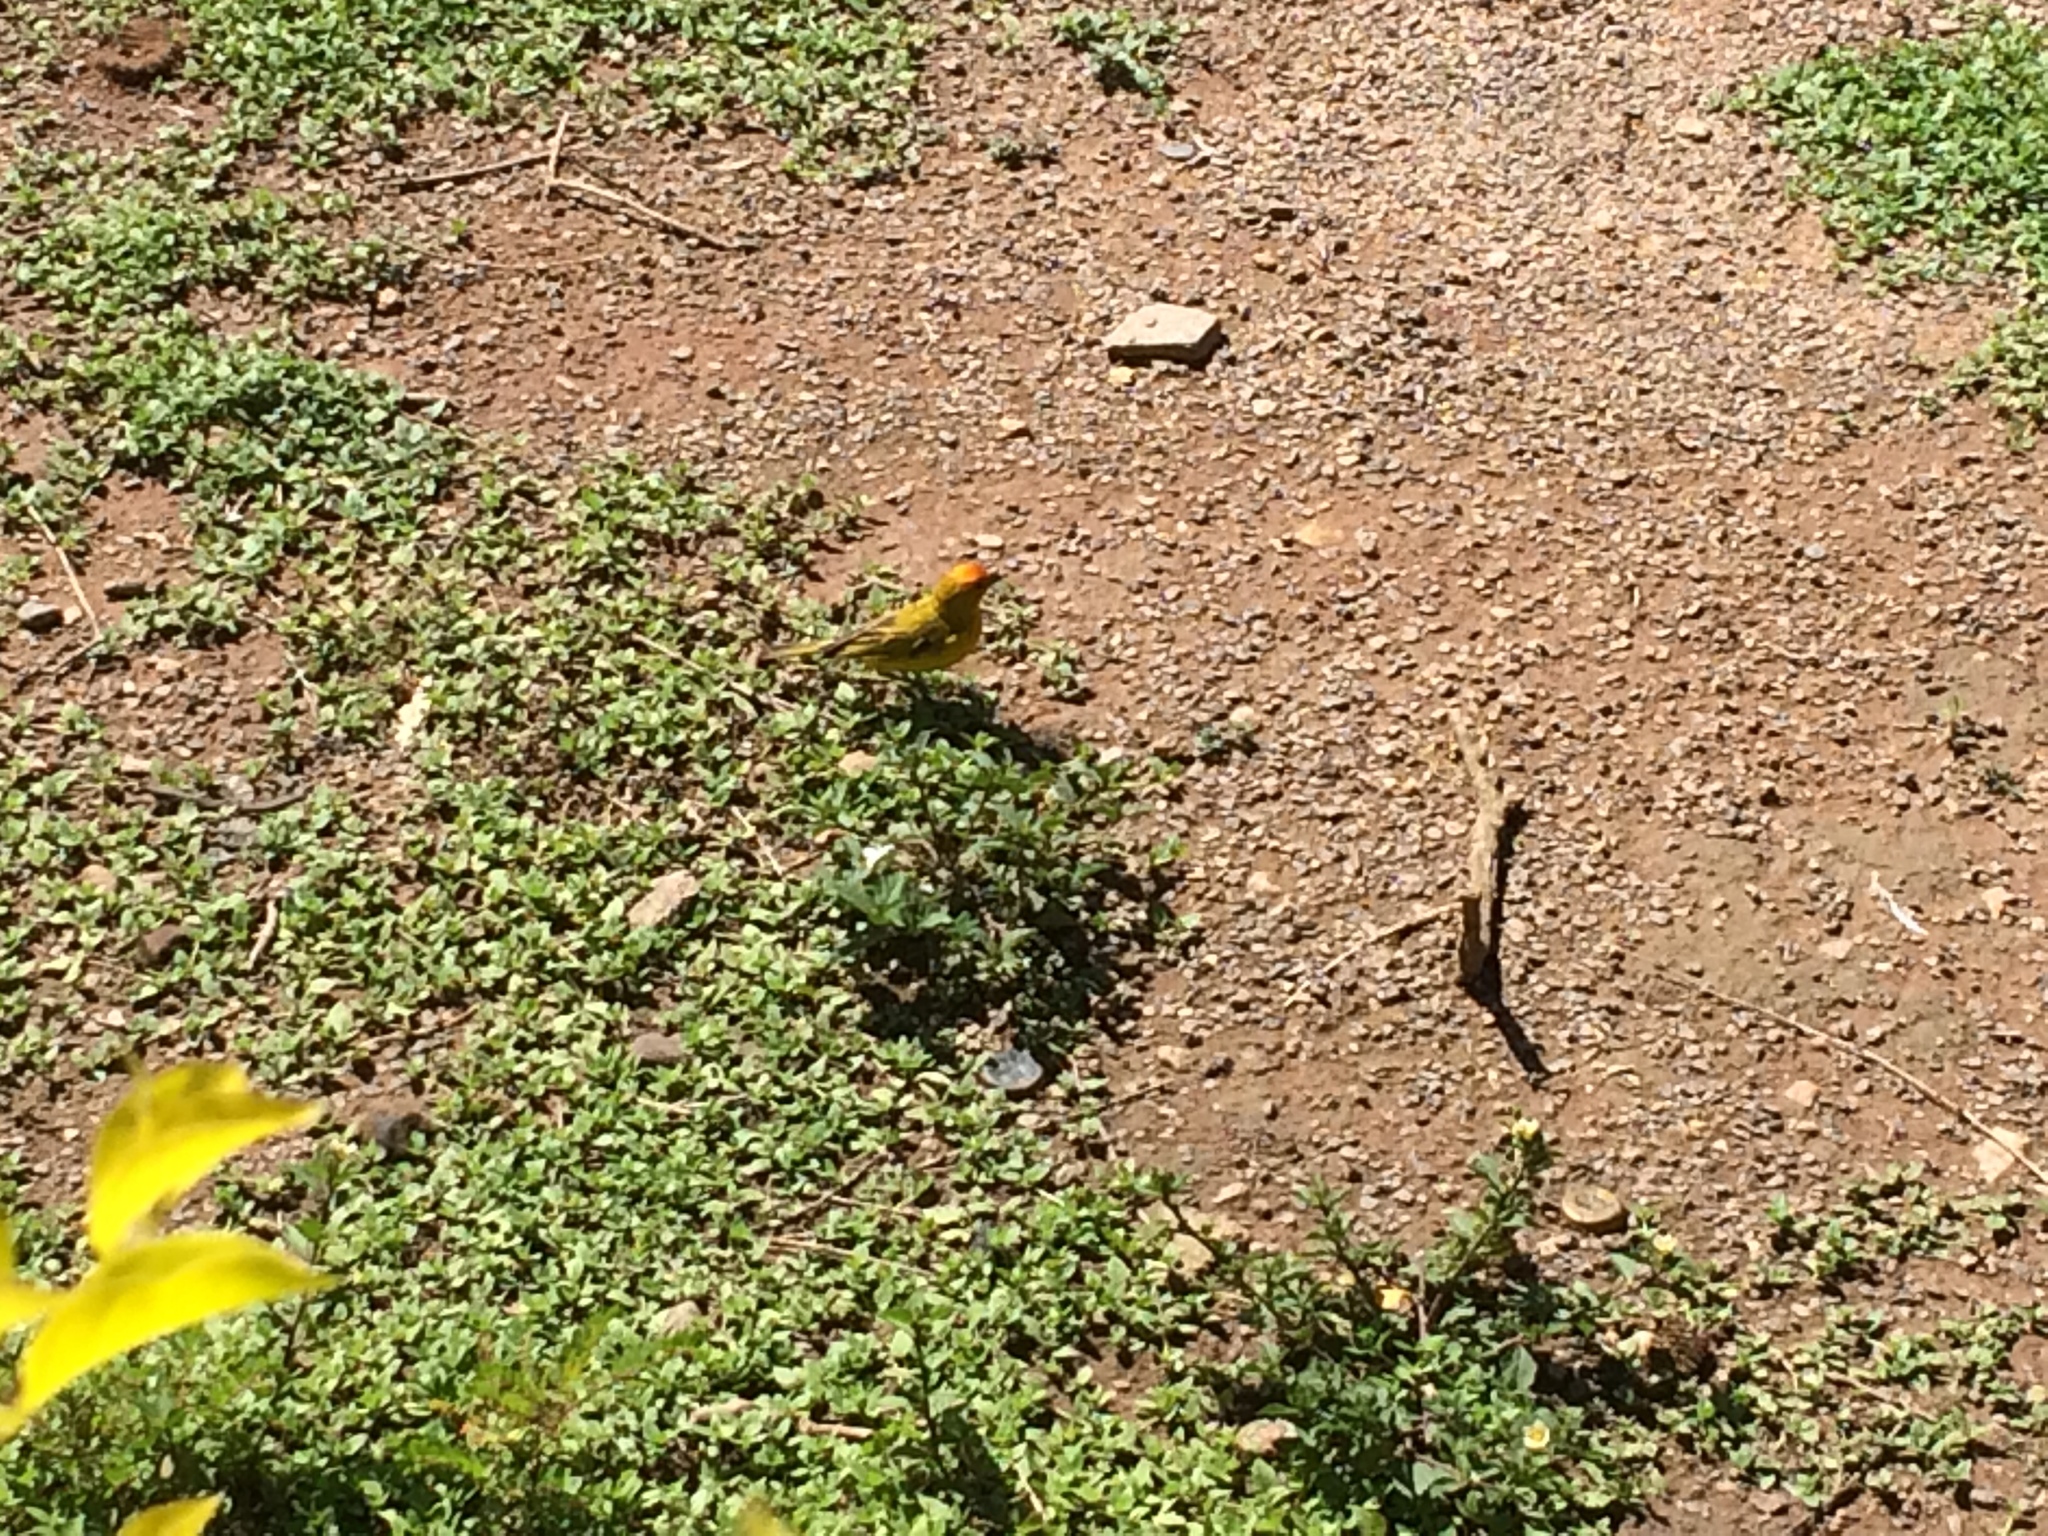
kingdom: Animalia
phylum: Chordata
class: Aves
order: Passeriformes
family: Thraupidae
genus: Sicalis
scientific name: Sicalis flaveola
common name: Saffron finch
